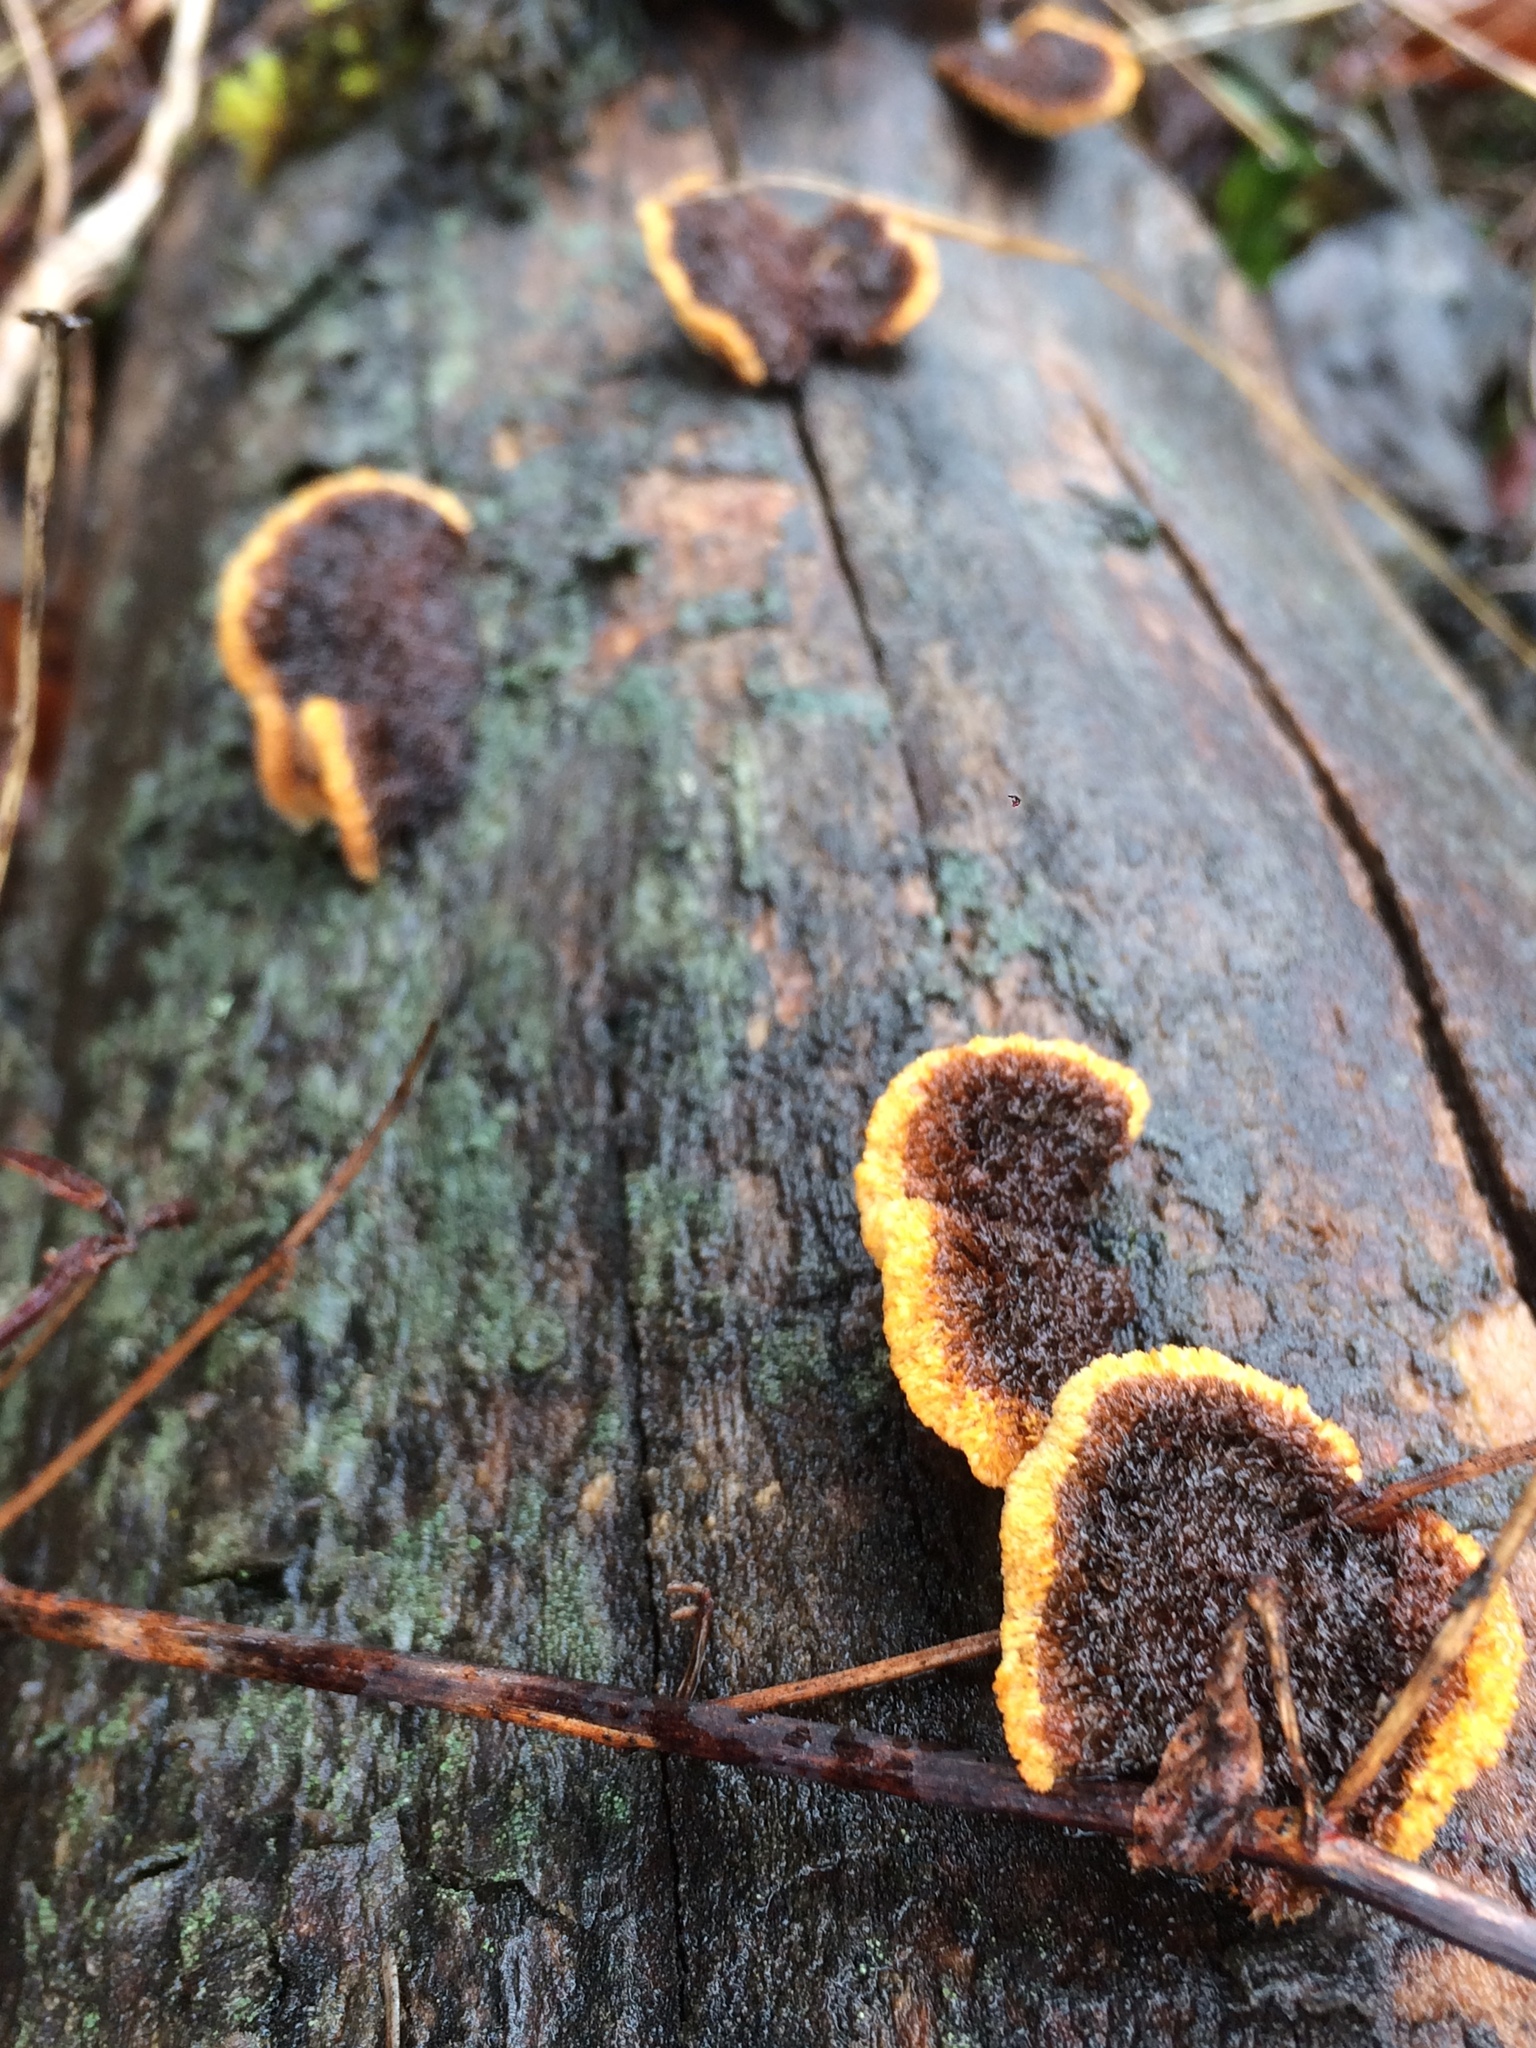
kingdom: Fungi
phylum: Basidiomycota
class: Agaricomycetes
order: Gloeophyllales
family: Gloeophyllaceae
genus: Gloeophyllum
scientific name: Gloeophyllum sepiarium
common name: Conifer mazegill
